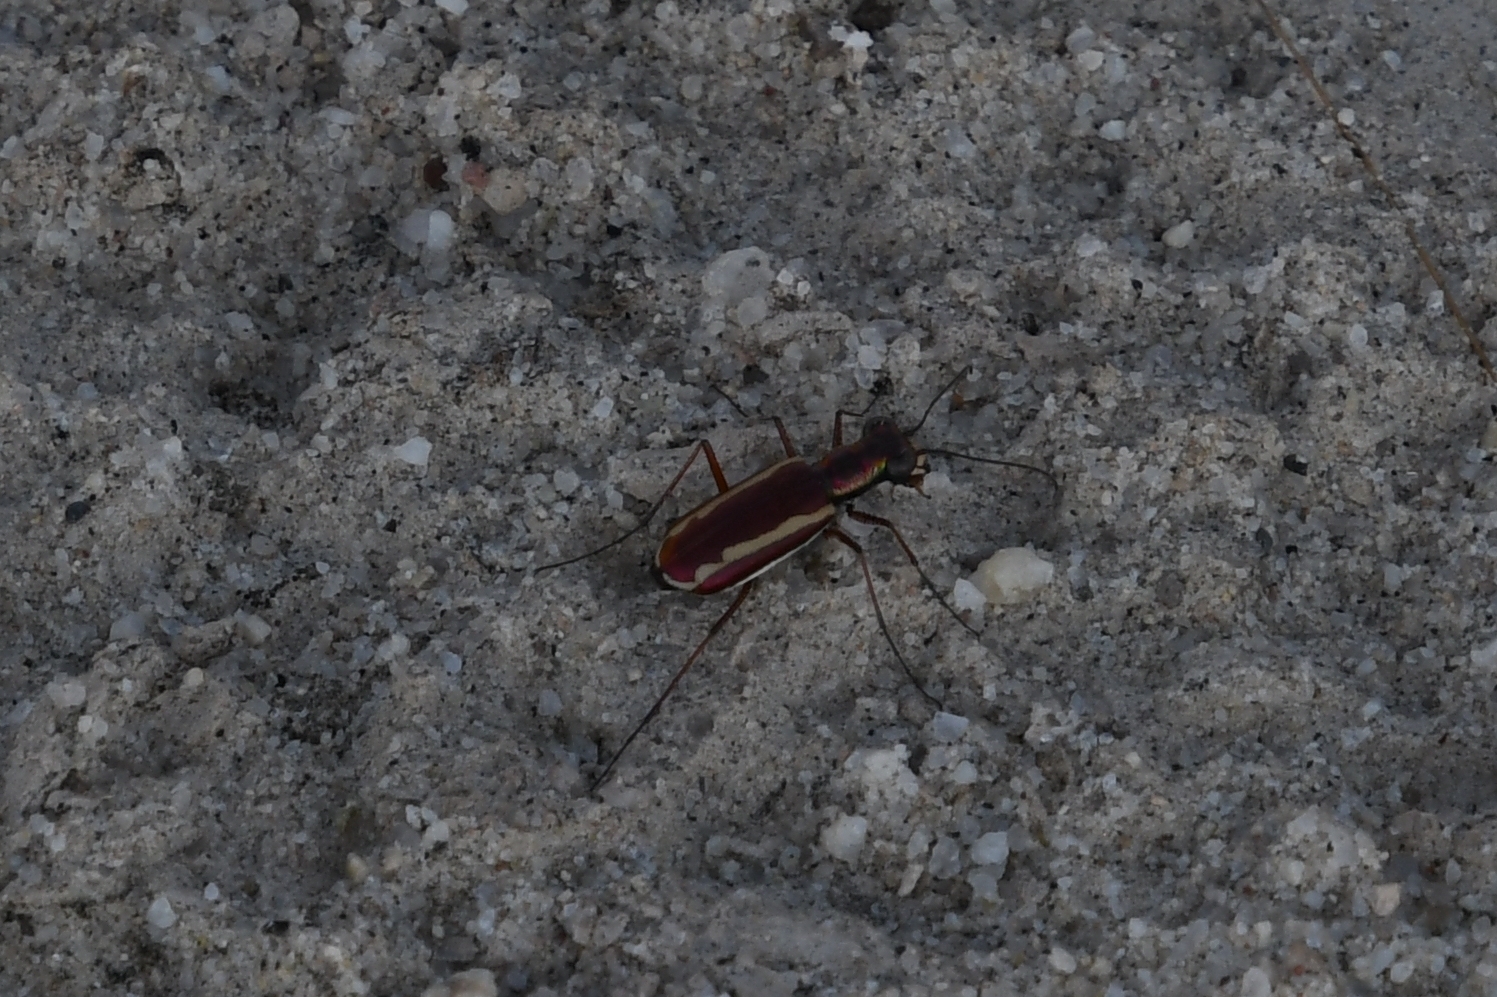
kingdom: Animalia
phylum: Arthropoda
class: Insecta
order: Coleoptera
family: Carabidae
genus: Cylindera
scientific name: Cylindera lemniscata
